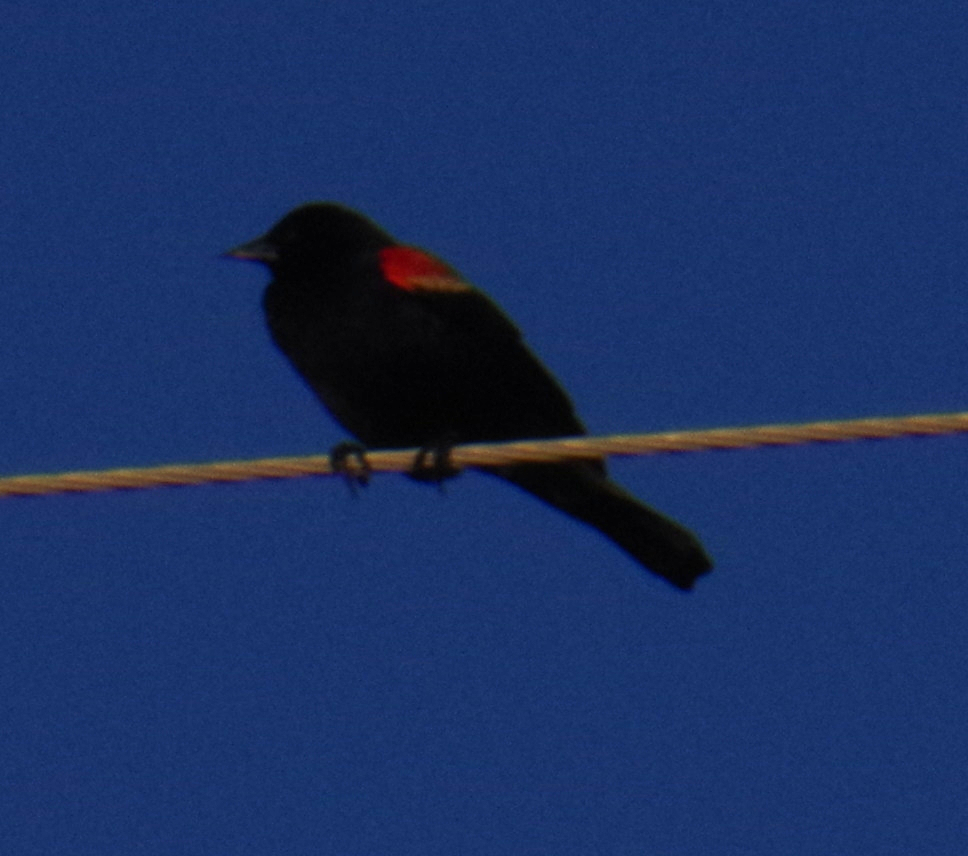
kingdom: Animalia
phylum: Chordata
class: Aves
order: Passeriformes
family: Icteridae
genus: Agelaius
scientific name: Agelaius phoeniceus
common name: Red-winged blackbird
